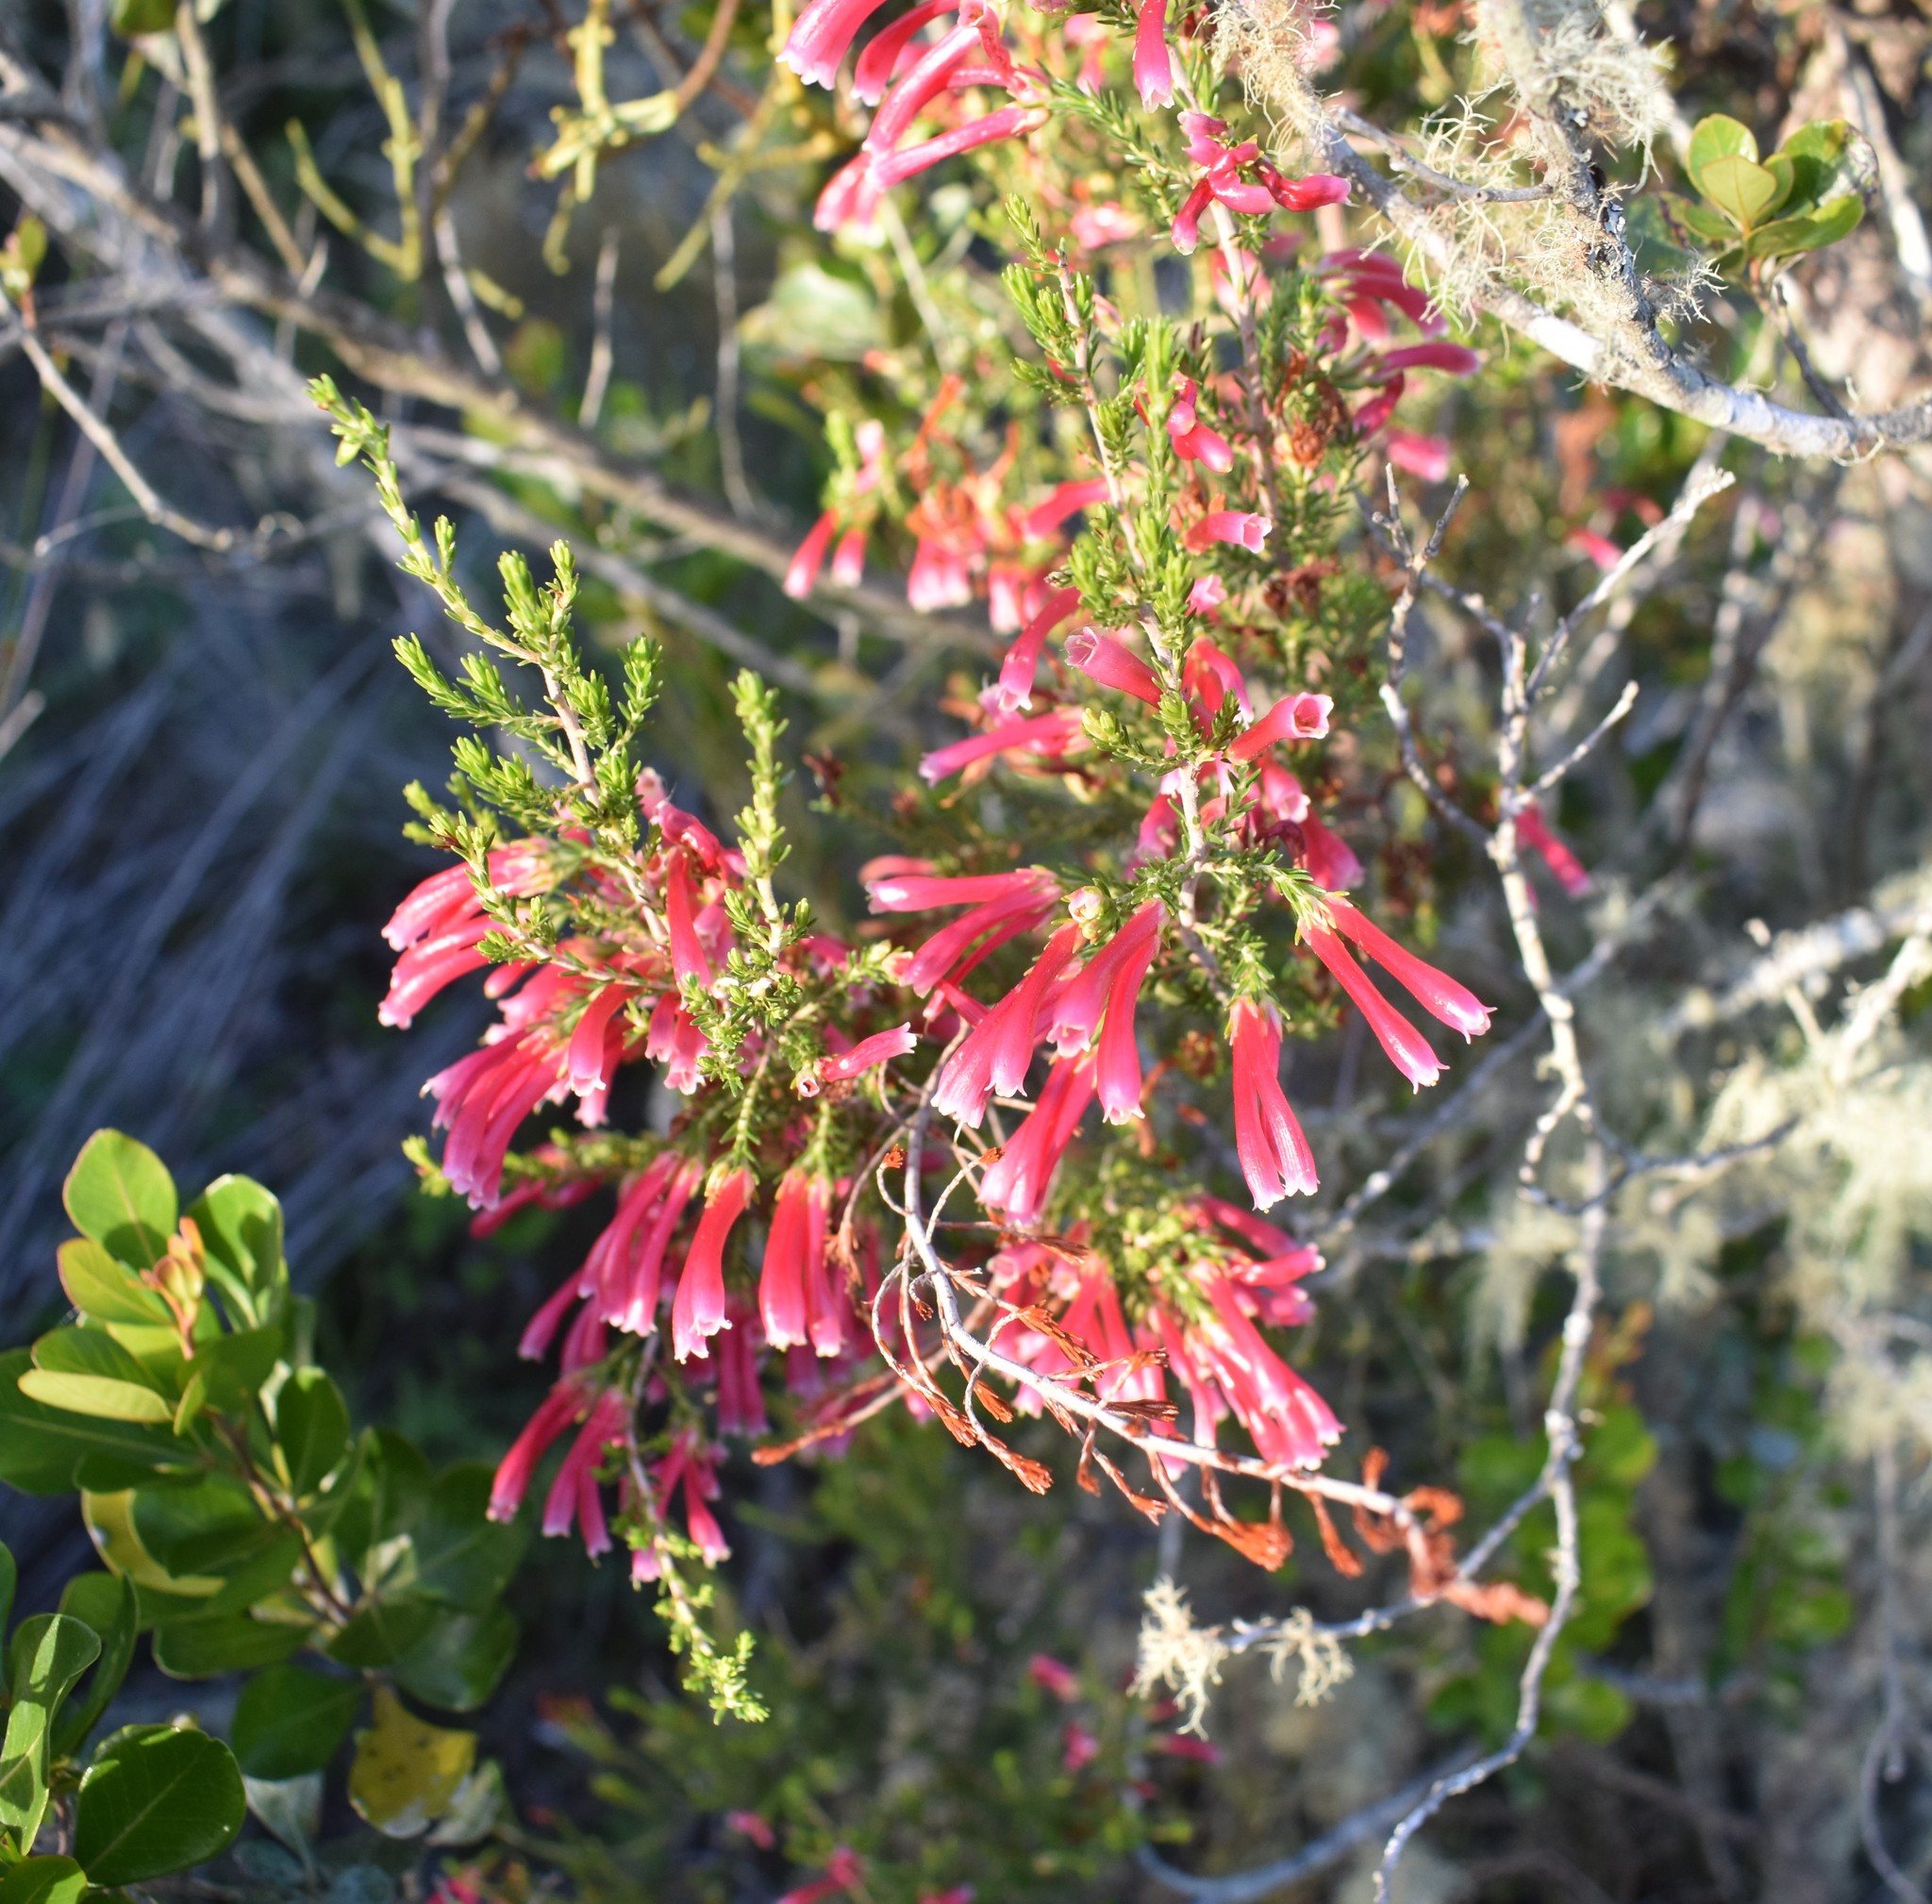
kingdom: Plantae
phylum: Tracheophyta
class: Magnoliopsida
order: Ericales
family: Ericaceae
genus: Erica
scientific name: Erica discolor
